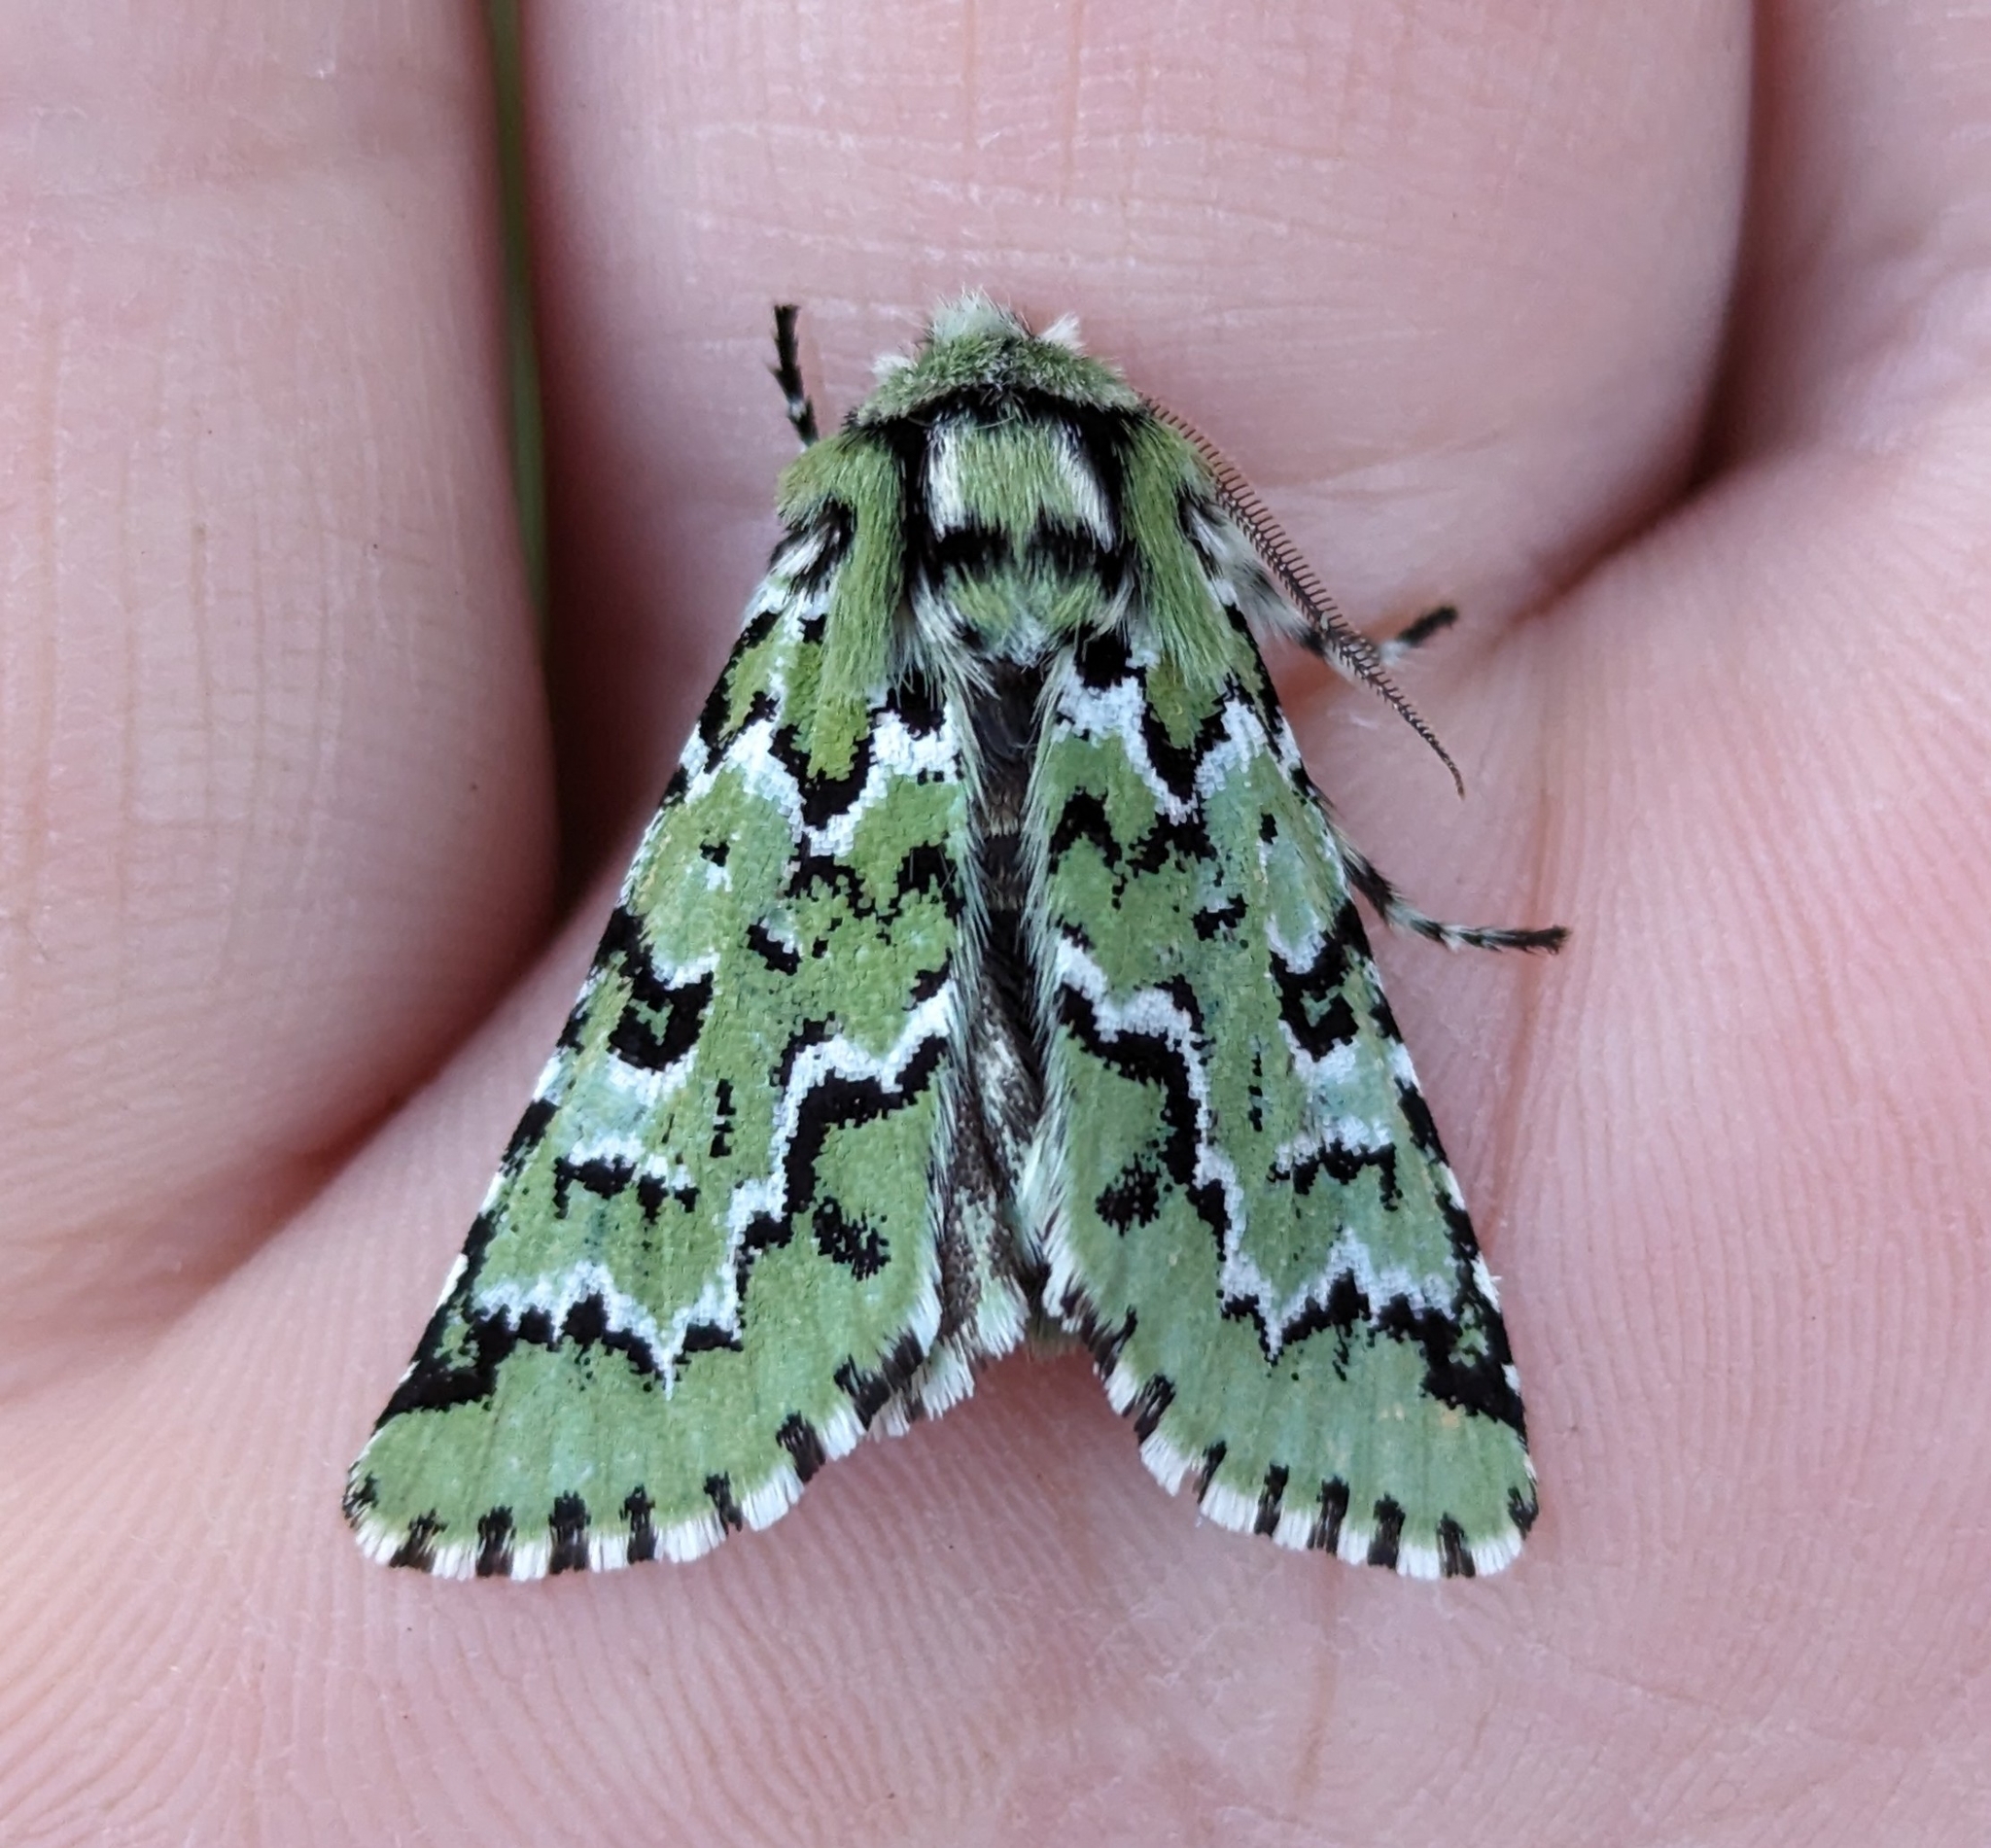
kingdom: Animalia
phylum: Arthropoda
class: Insecta
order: Lepidoptera
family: Noctuidae
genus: Feralia
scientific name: Feralia deceptiva
